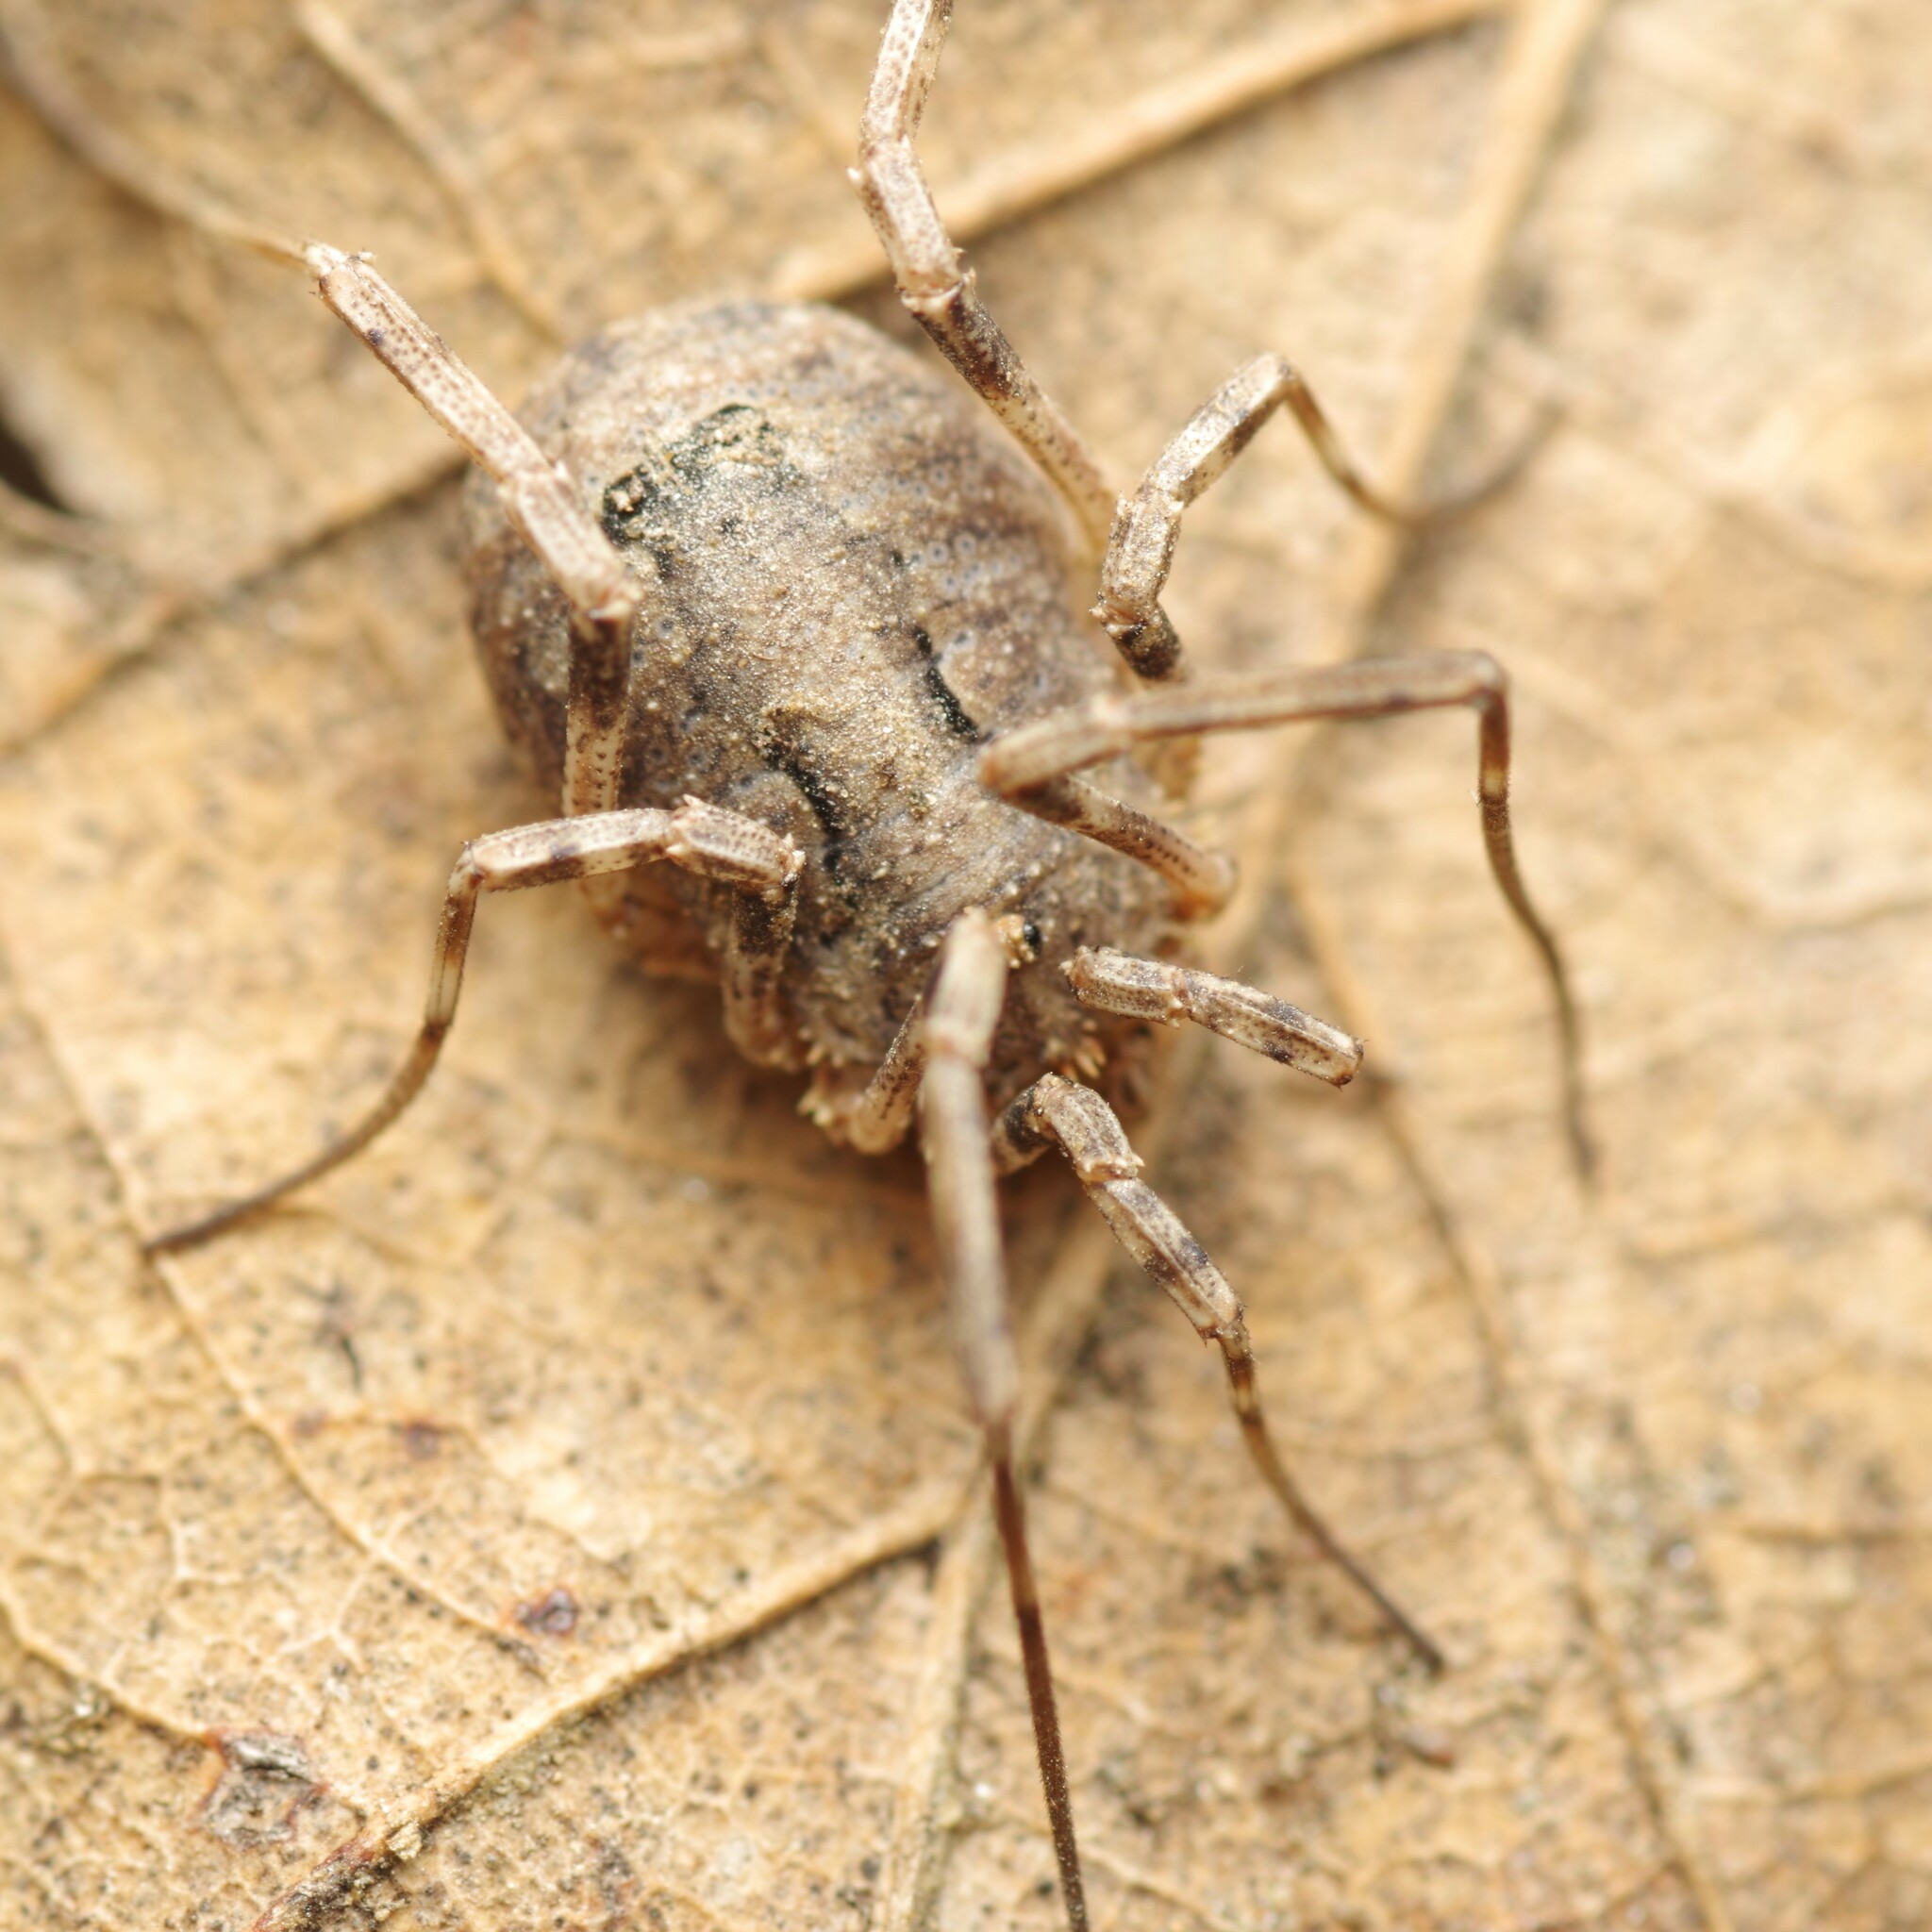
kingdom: Animalia
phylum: Arthropoda
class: Arachnida
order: Opiliones
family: Phalangiidae
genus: Odiellus
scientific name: Odiellus spinosus
